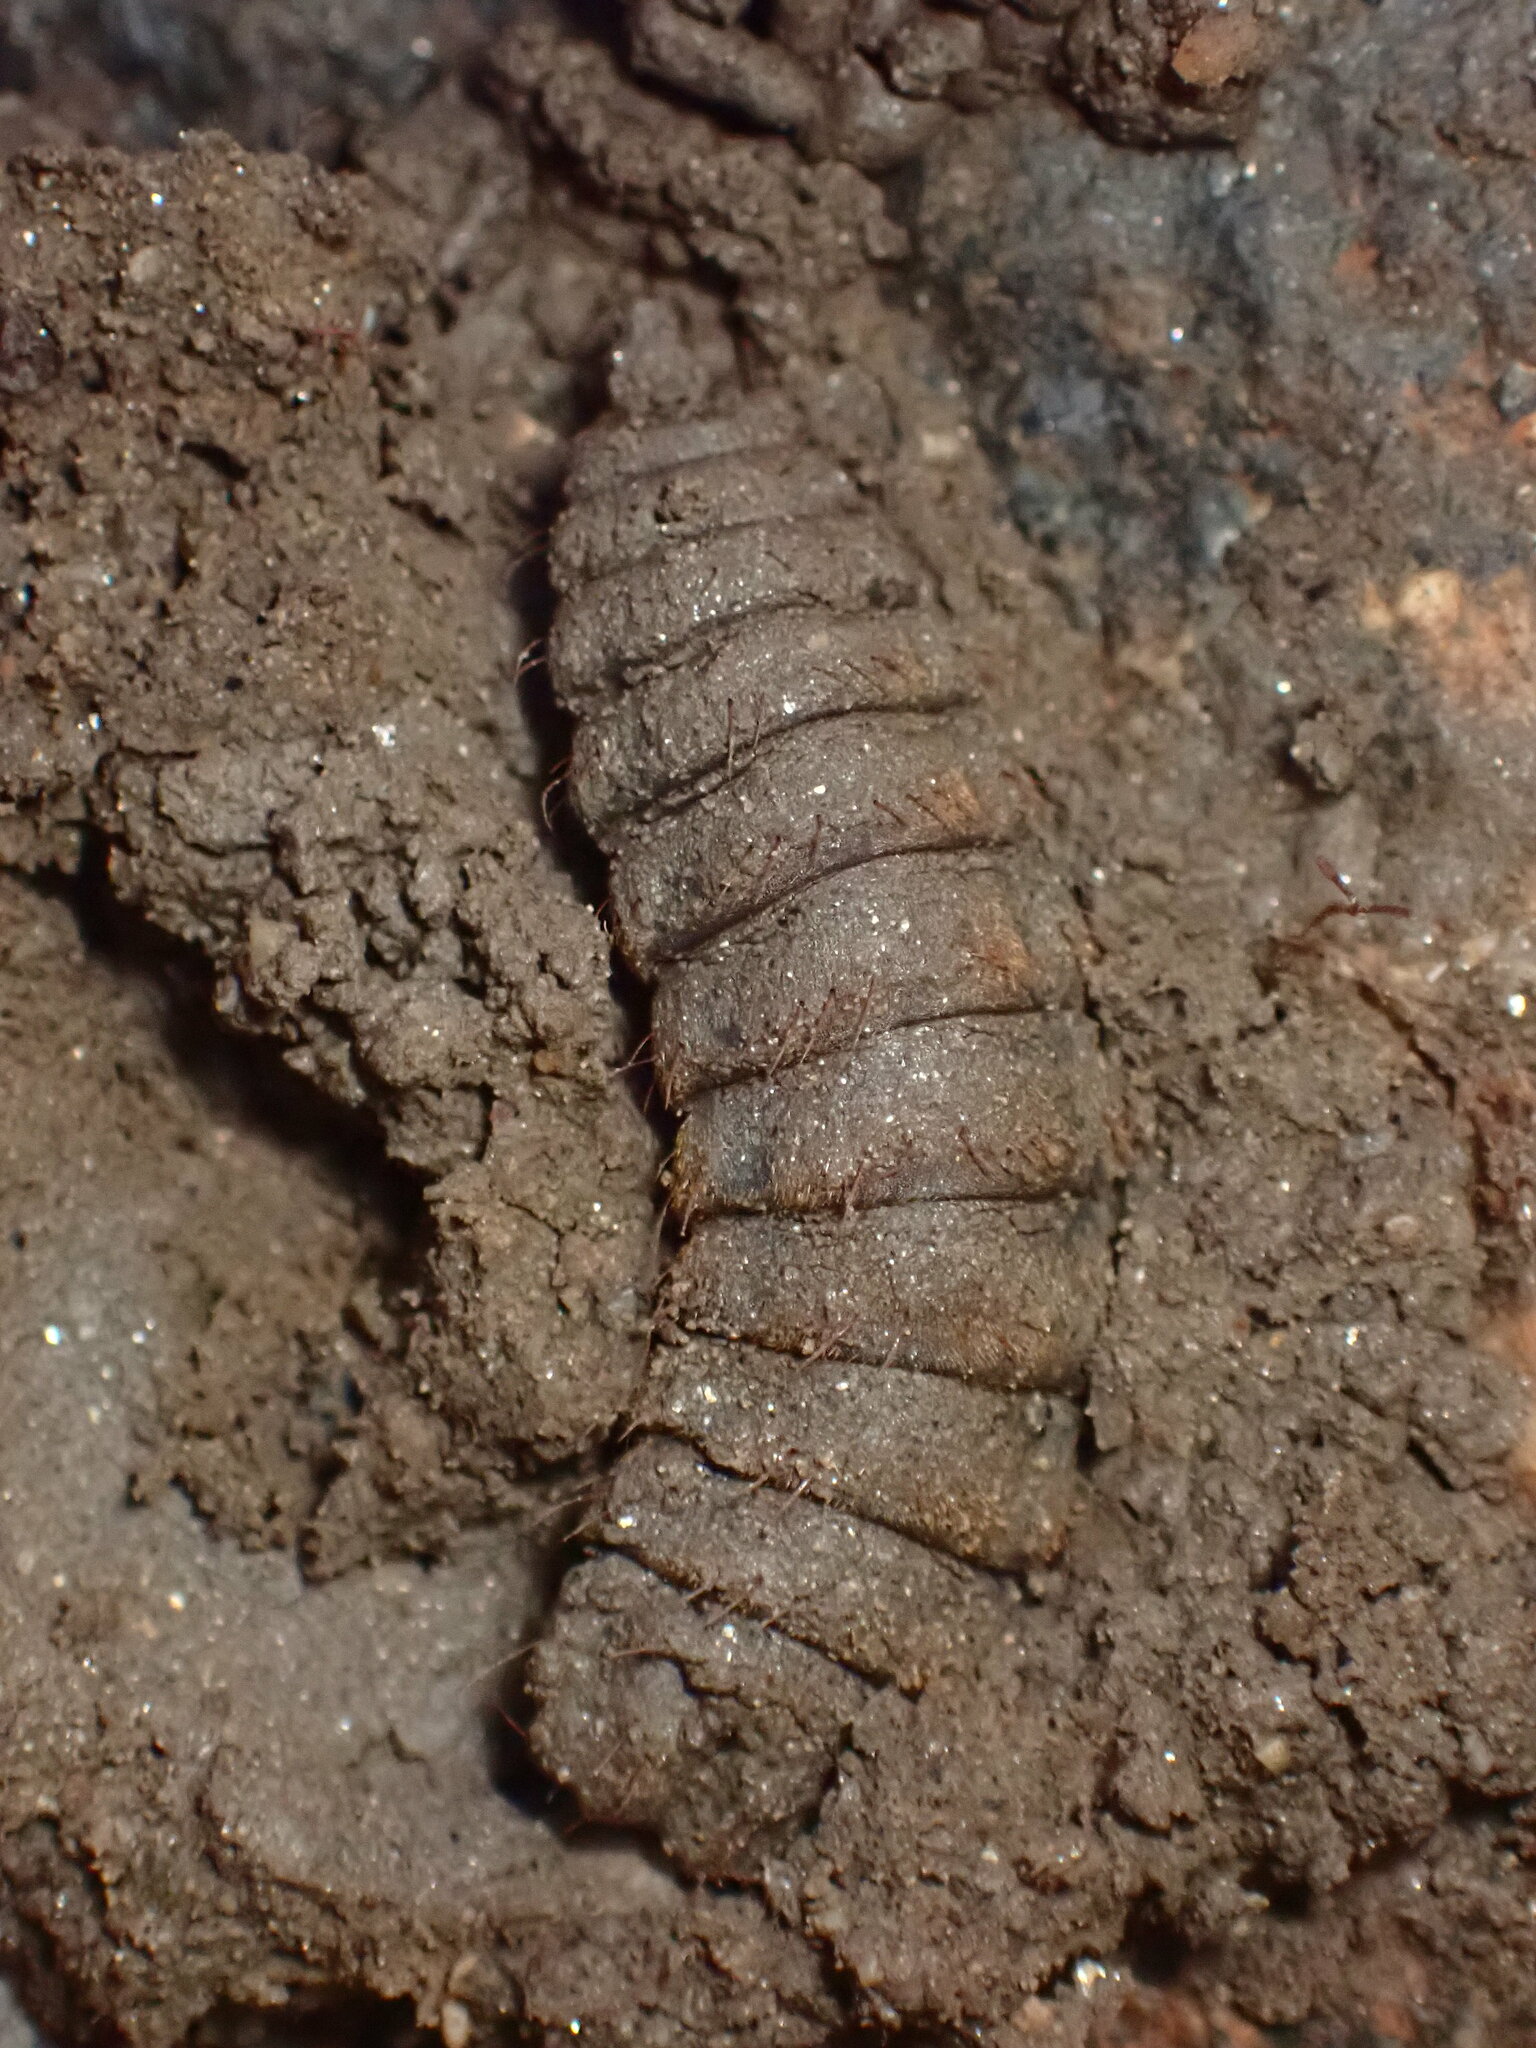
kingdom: Animalia
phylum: Arthropoda
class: Insecta
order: Diptera
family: Stratiomyidae
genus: Hermetia
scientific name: Hermetia illucens
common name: Black soldier fly
